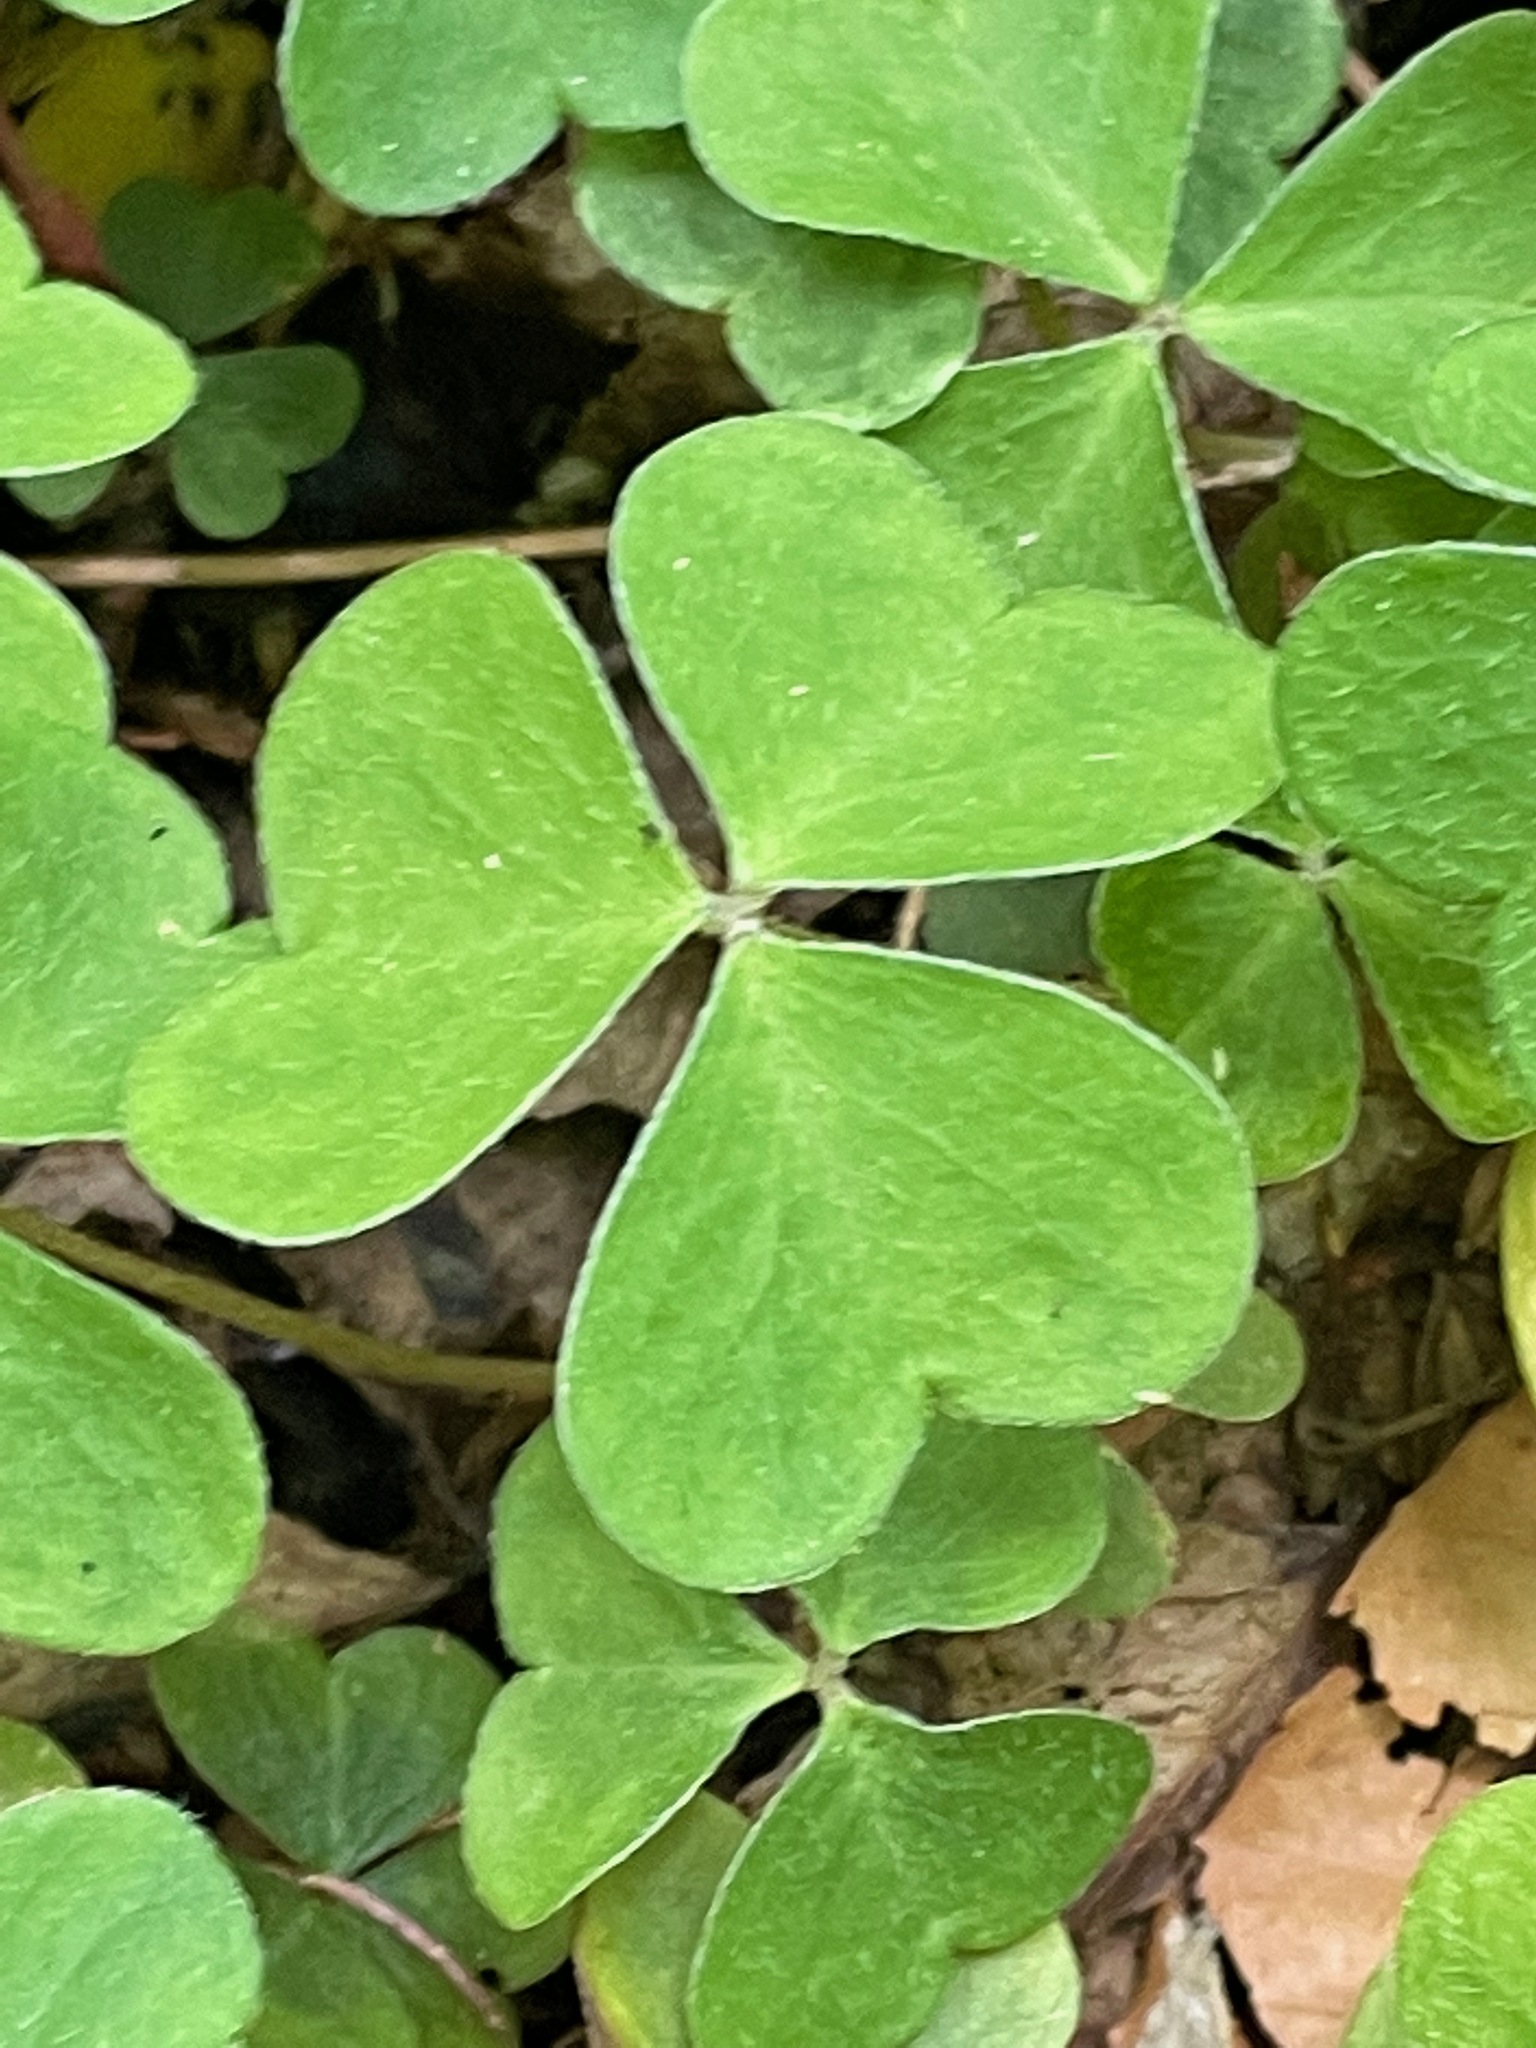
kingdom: Plantae
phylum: Tracheophyta
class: Magnoliopsida
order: Oxalidales
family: Oxalidaceae
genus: Oxalis
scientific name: Oxalis montana
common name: American wood-sorrel
